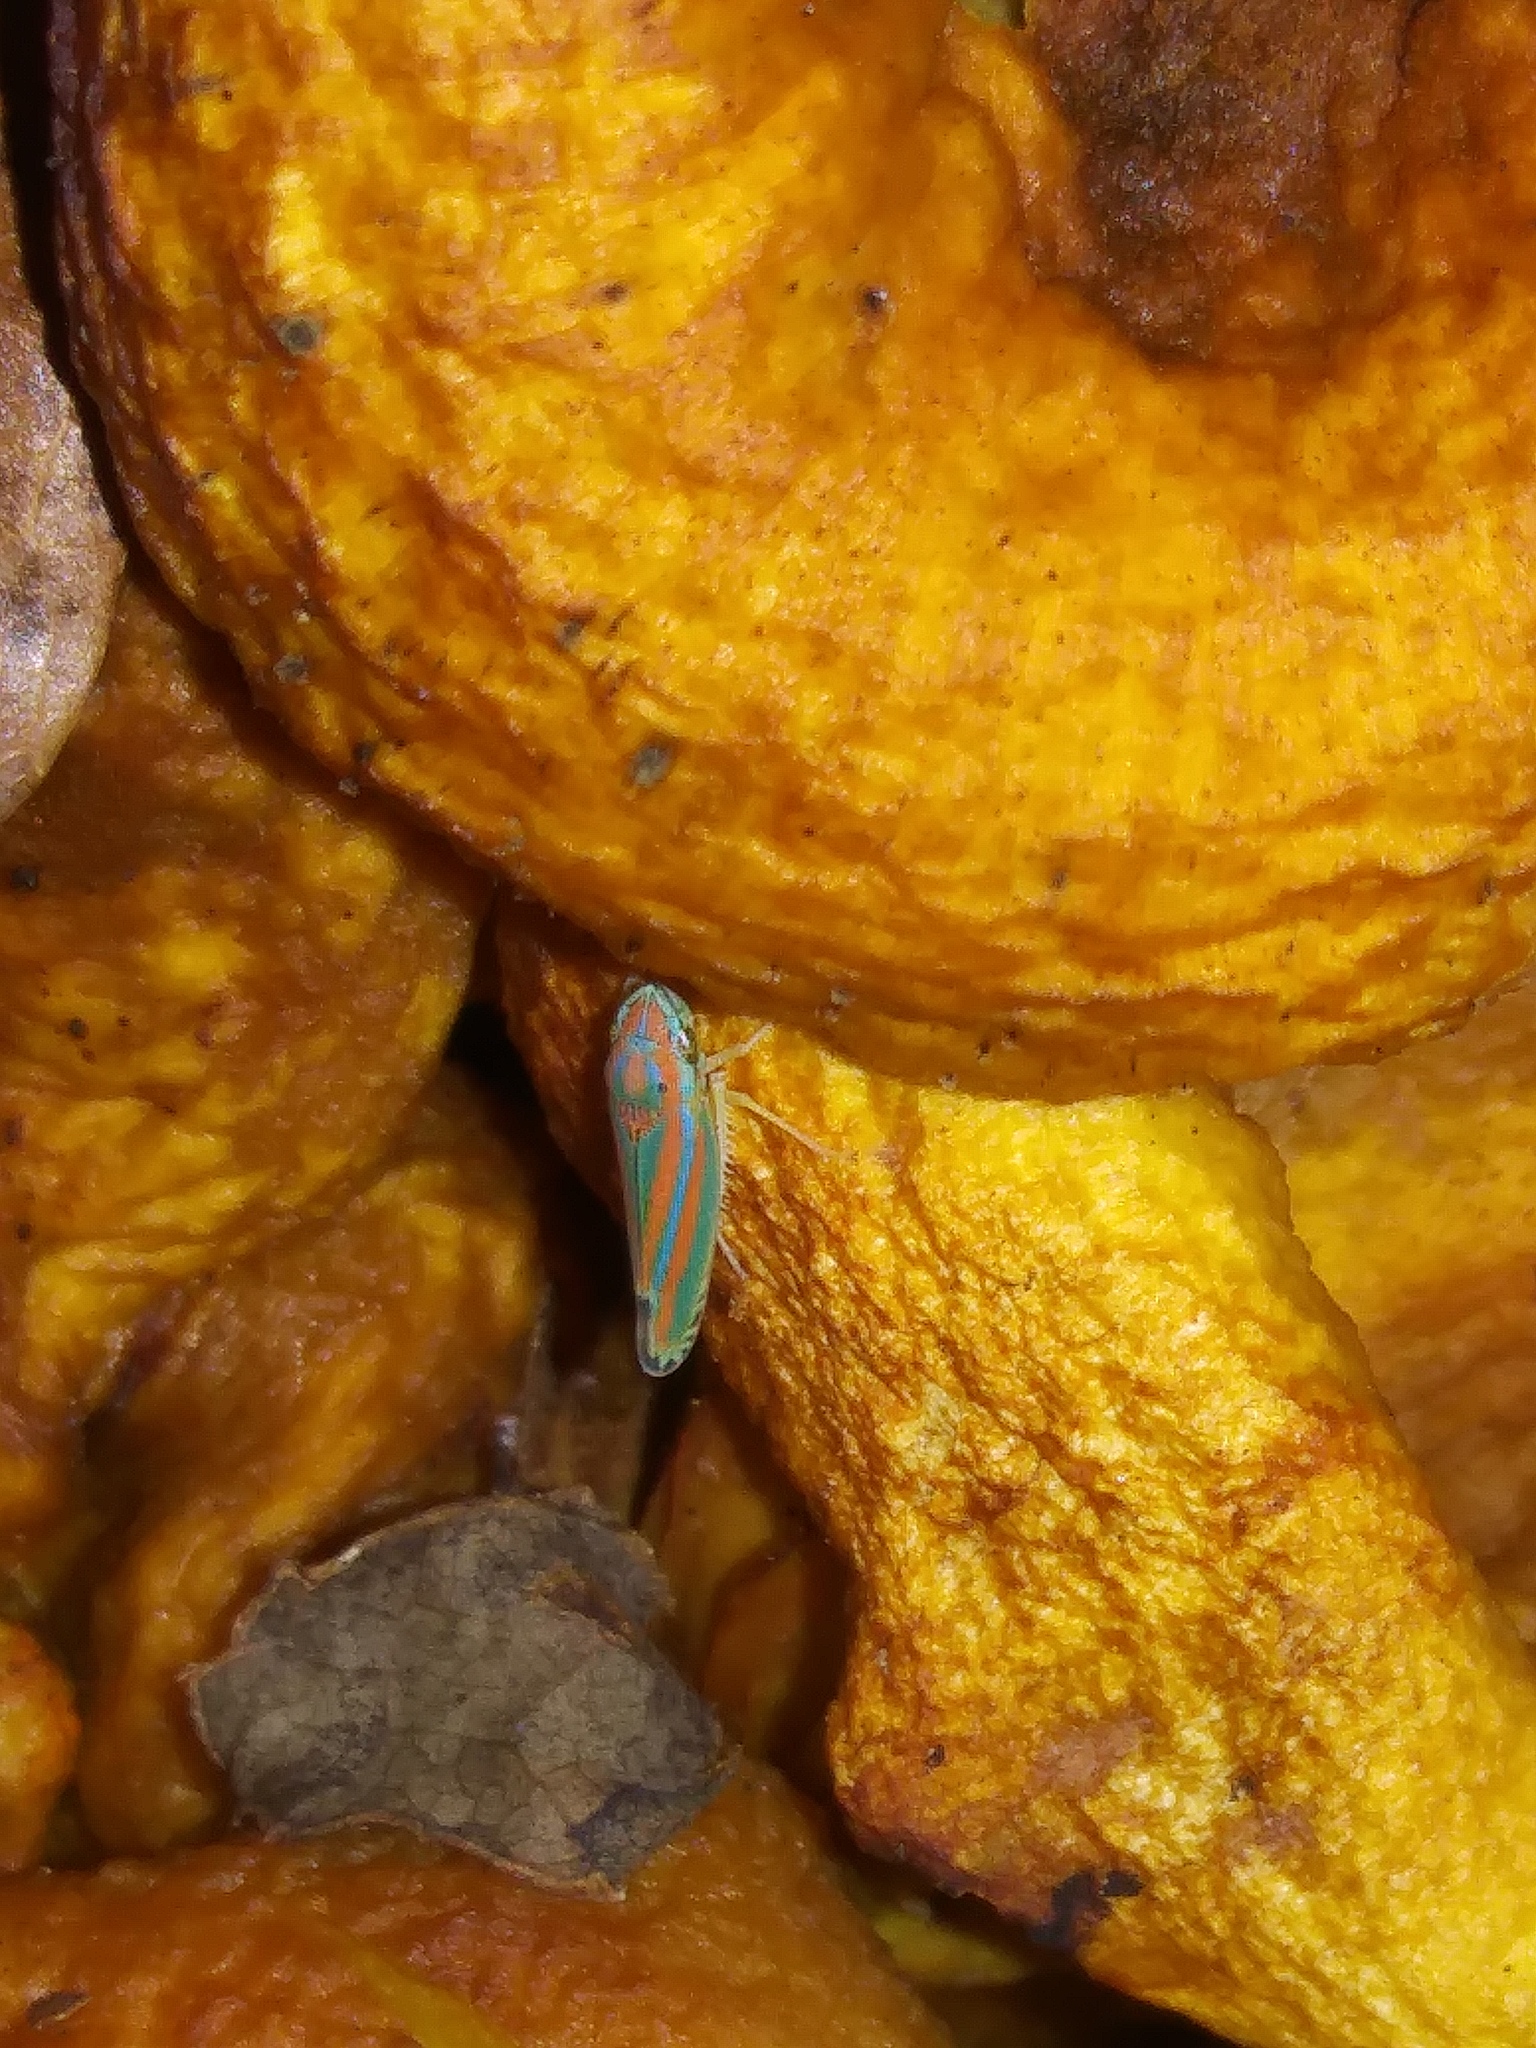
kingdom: Animalia
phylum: Arthropoda
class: Insecta
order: Hemiptera
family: Cicadellidae
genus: Graphocephala
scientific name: Graphocephala versuta
